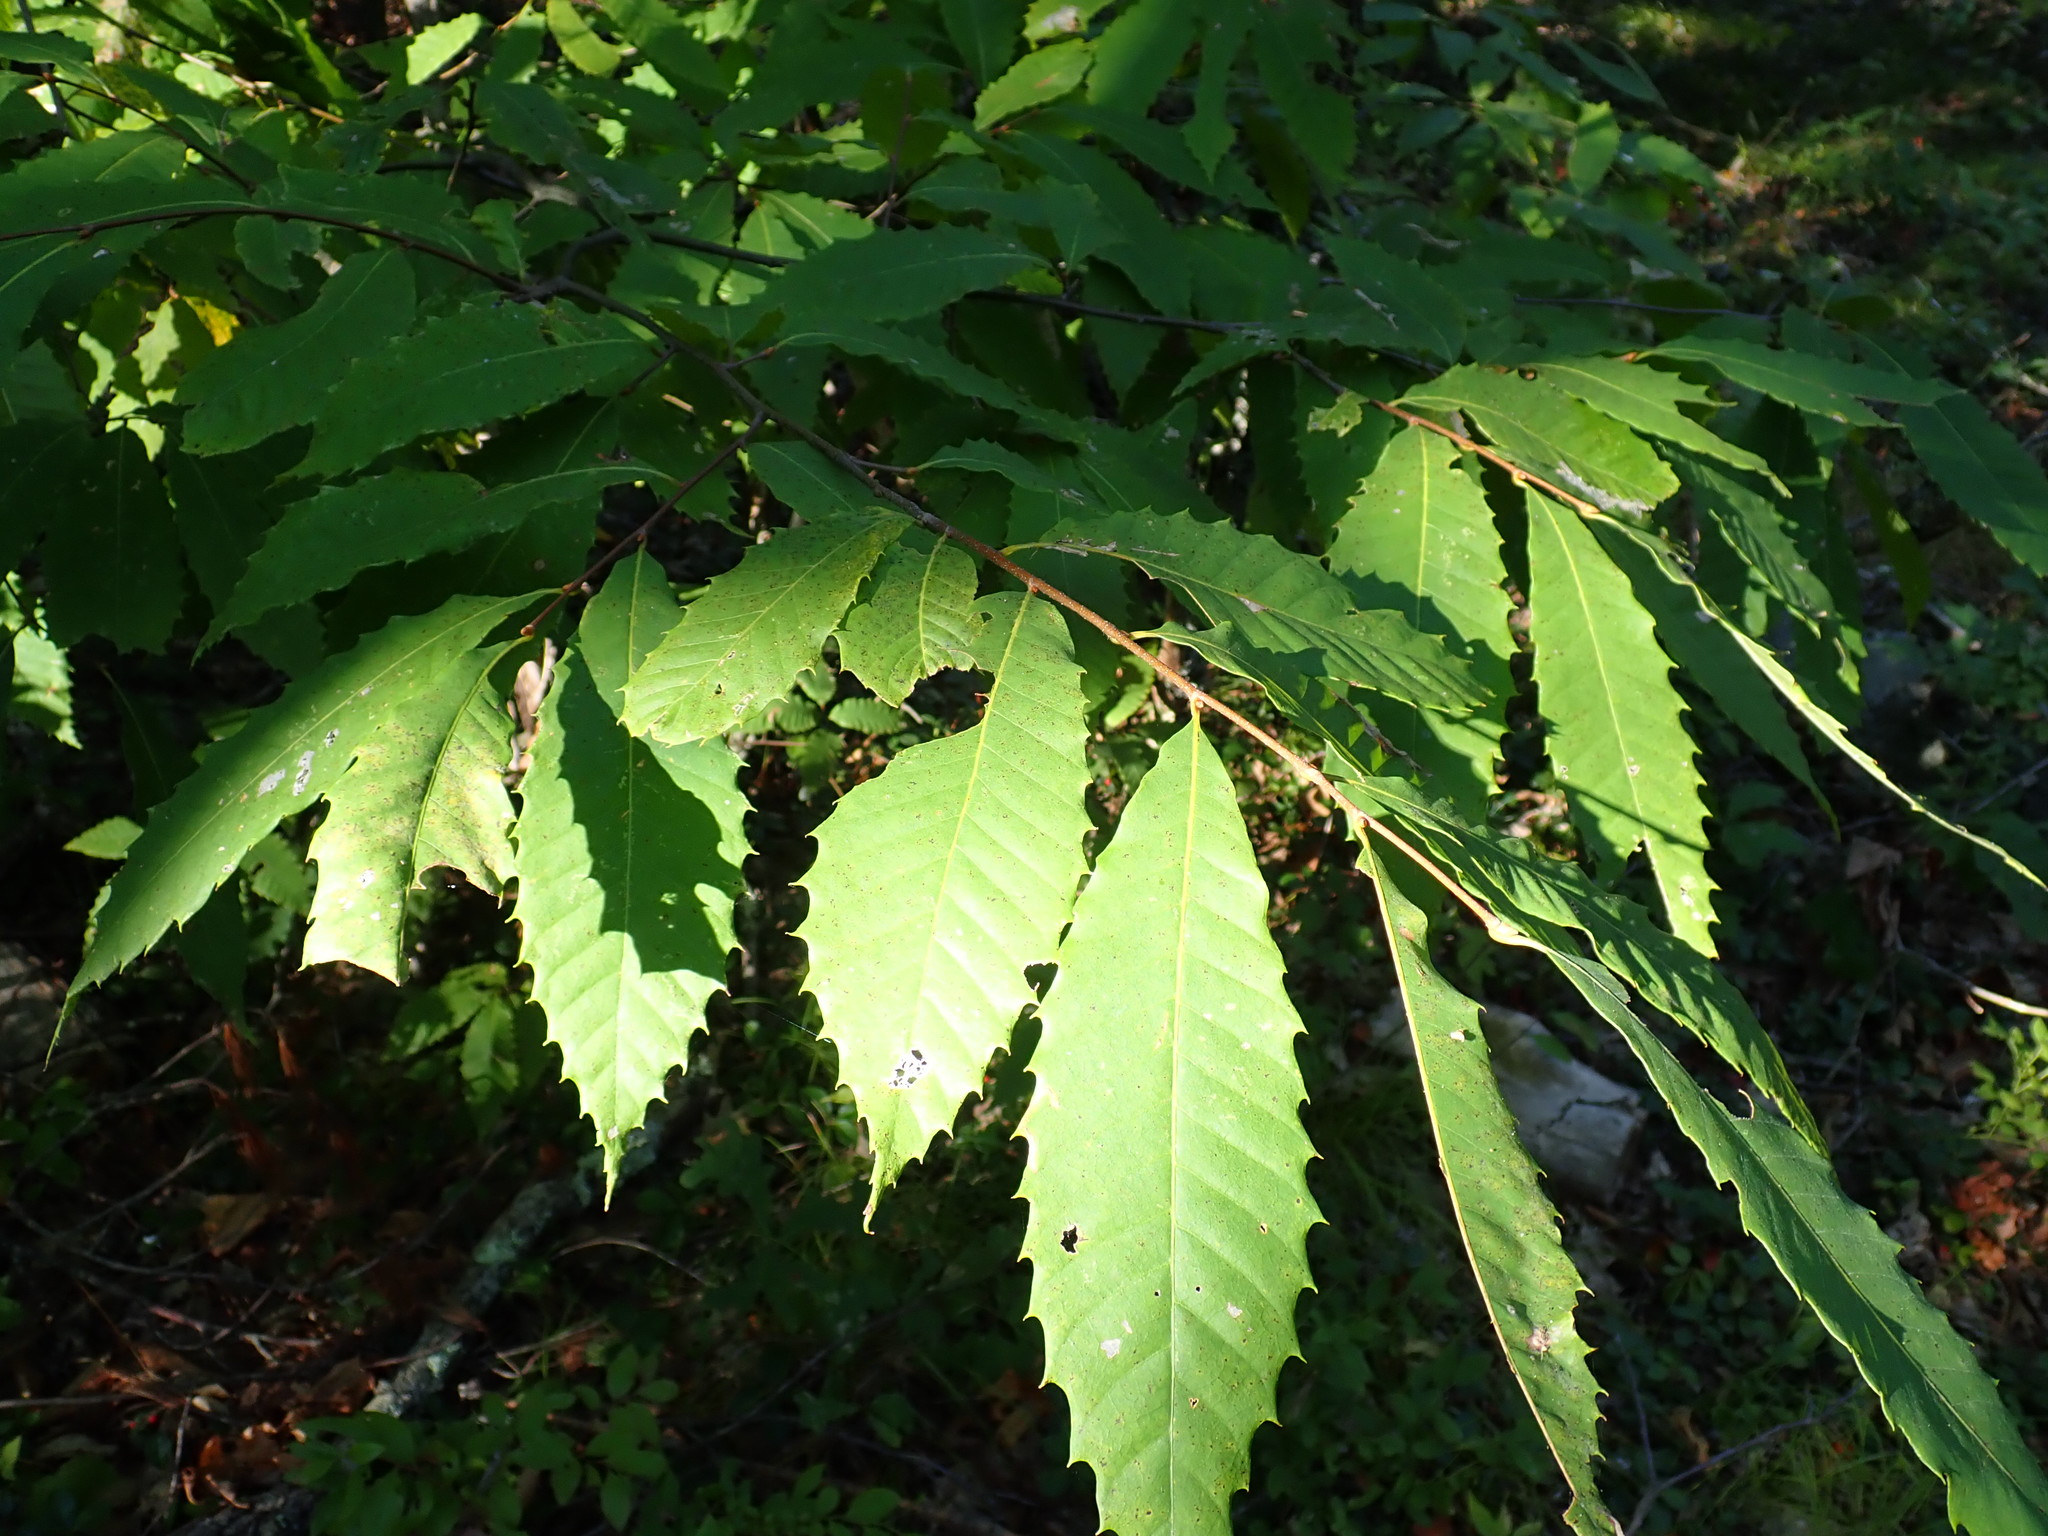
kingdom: Plantae
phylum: Tracheophyta
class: Magnoliopsida
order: Fagales
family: Fagaceae
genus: Castanea
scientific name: Castanea dentata
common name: American chestnut
